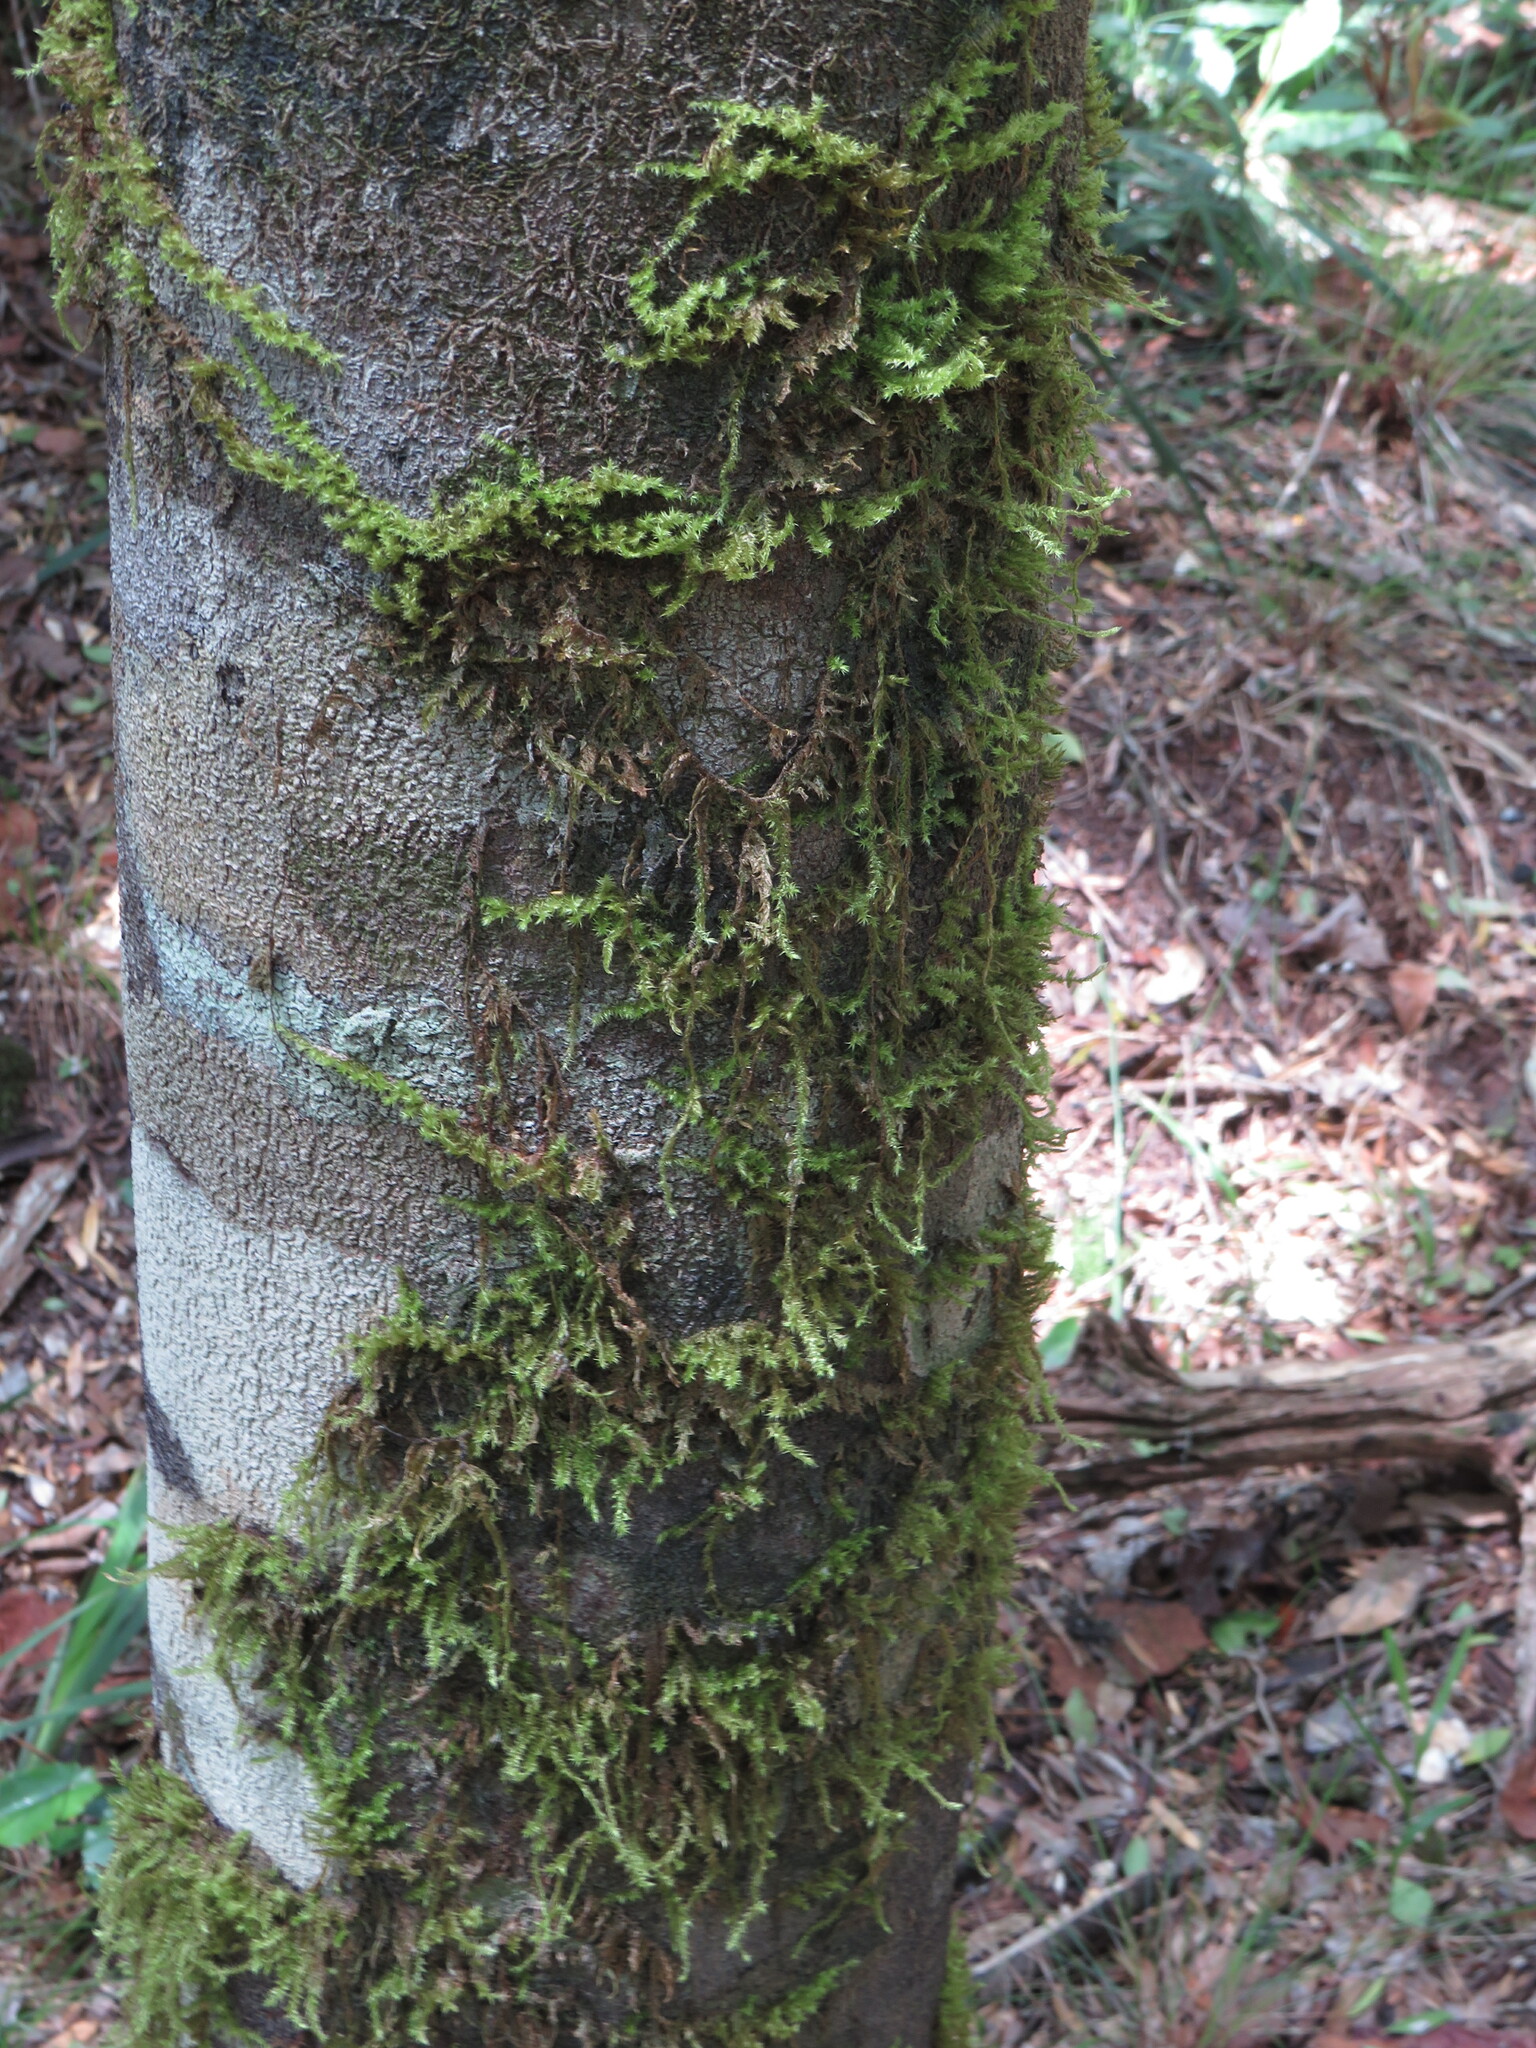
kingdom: Plantae
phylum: Bryophyta
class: Bryopsida
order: Hypnales
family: Meteoriaceae
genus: Aerobryopsis
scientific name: Aerobryopsis capensis
